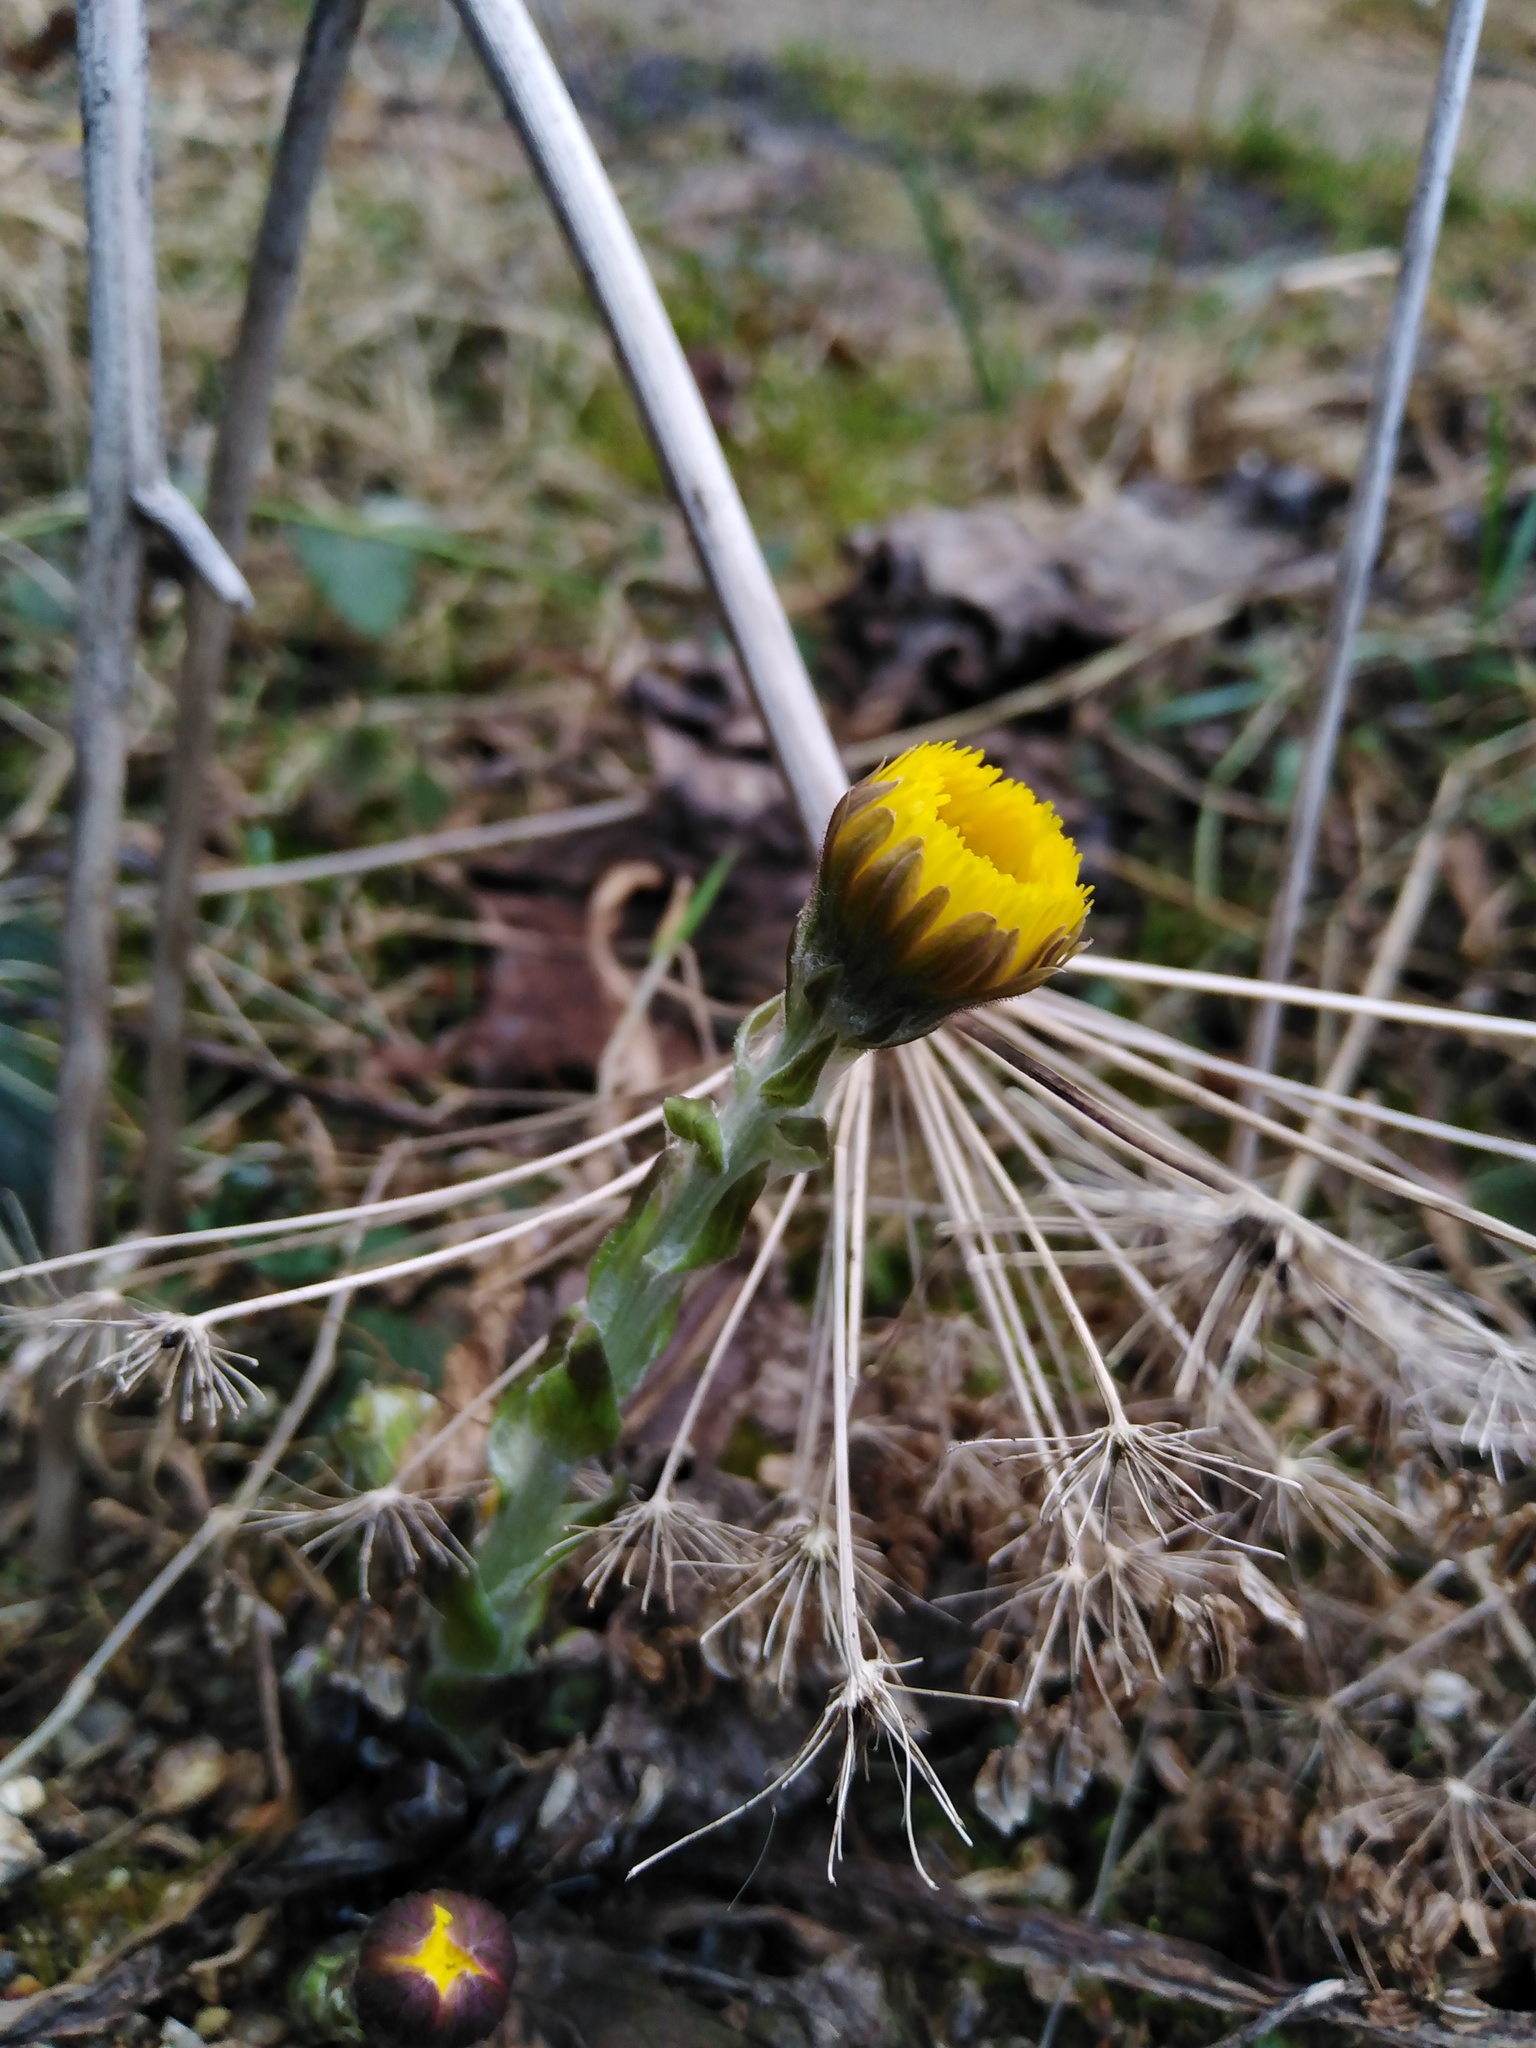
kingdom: Plantae
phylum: Tracheophyta
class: Magnoliopsida
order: Asterales
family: Asteraceae
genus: Tussilago
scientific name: Tussilago farfara
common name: Coltsfoot
